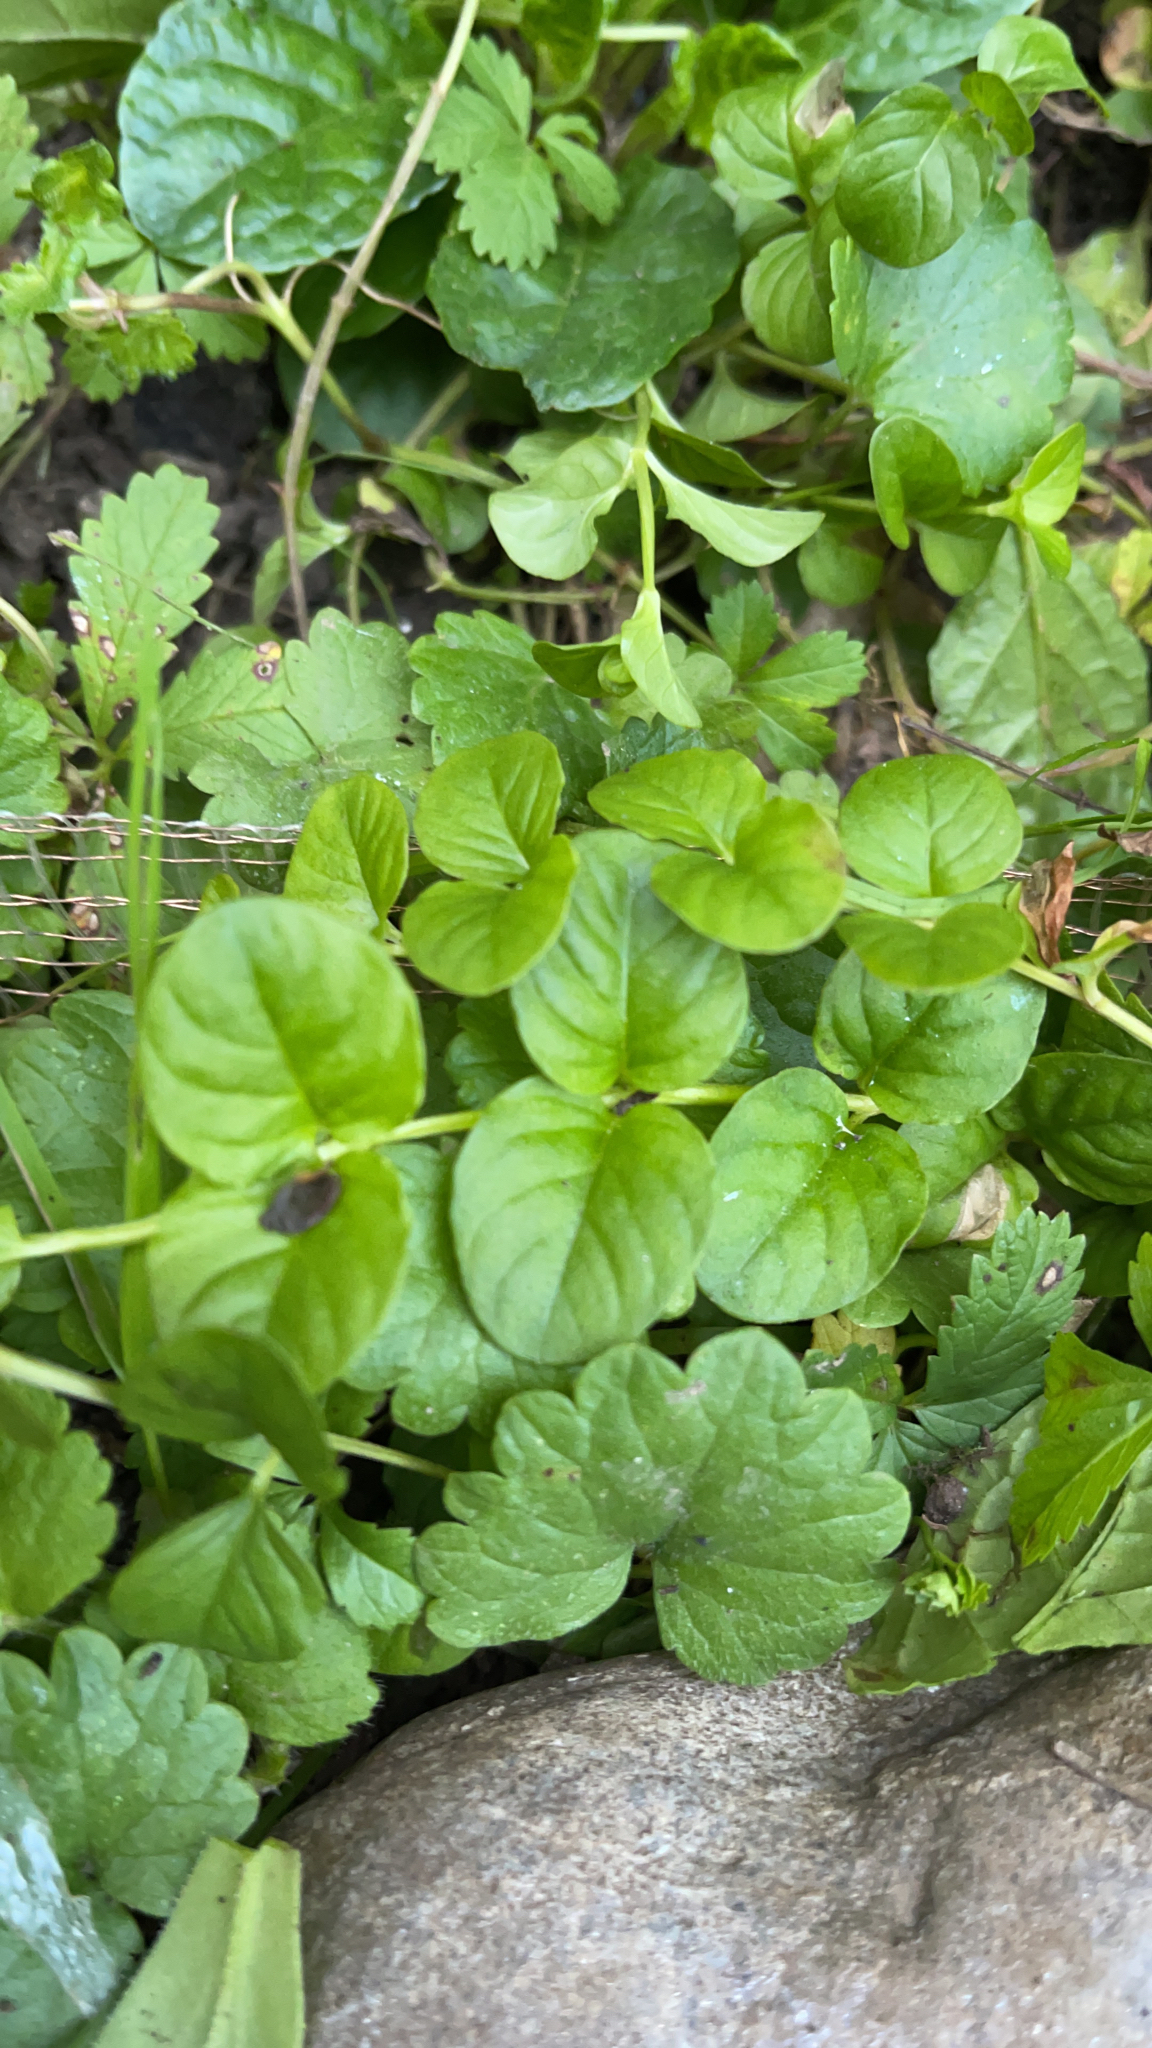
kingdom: Plantae
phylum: Tracheophyta
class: Magnoliopsida
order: Ericales
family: Primulaceae
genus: Lysimachia
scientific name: Lysimachia nummularia
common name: Moneywort
